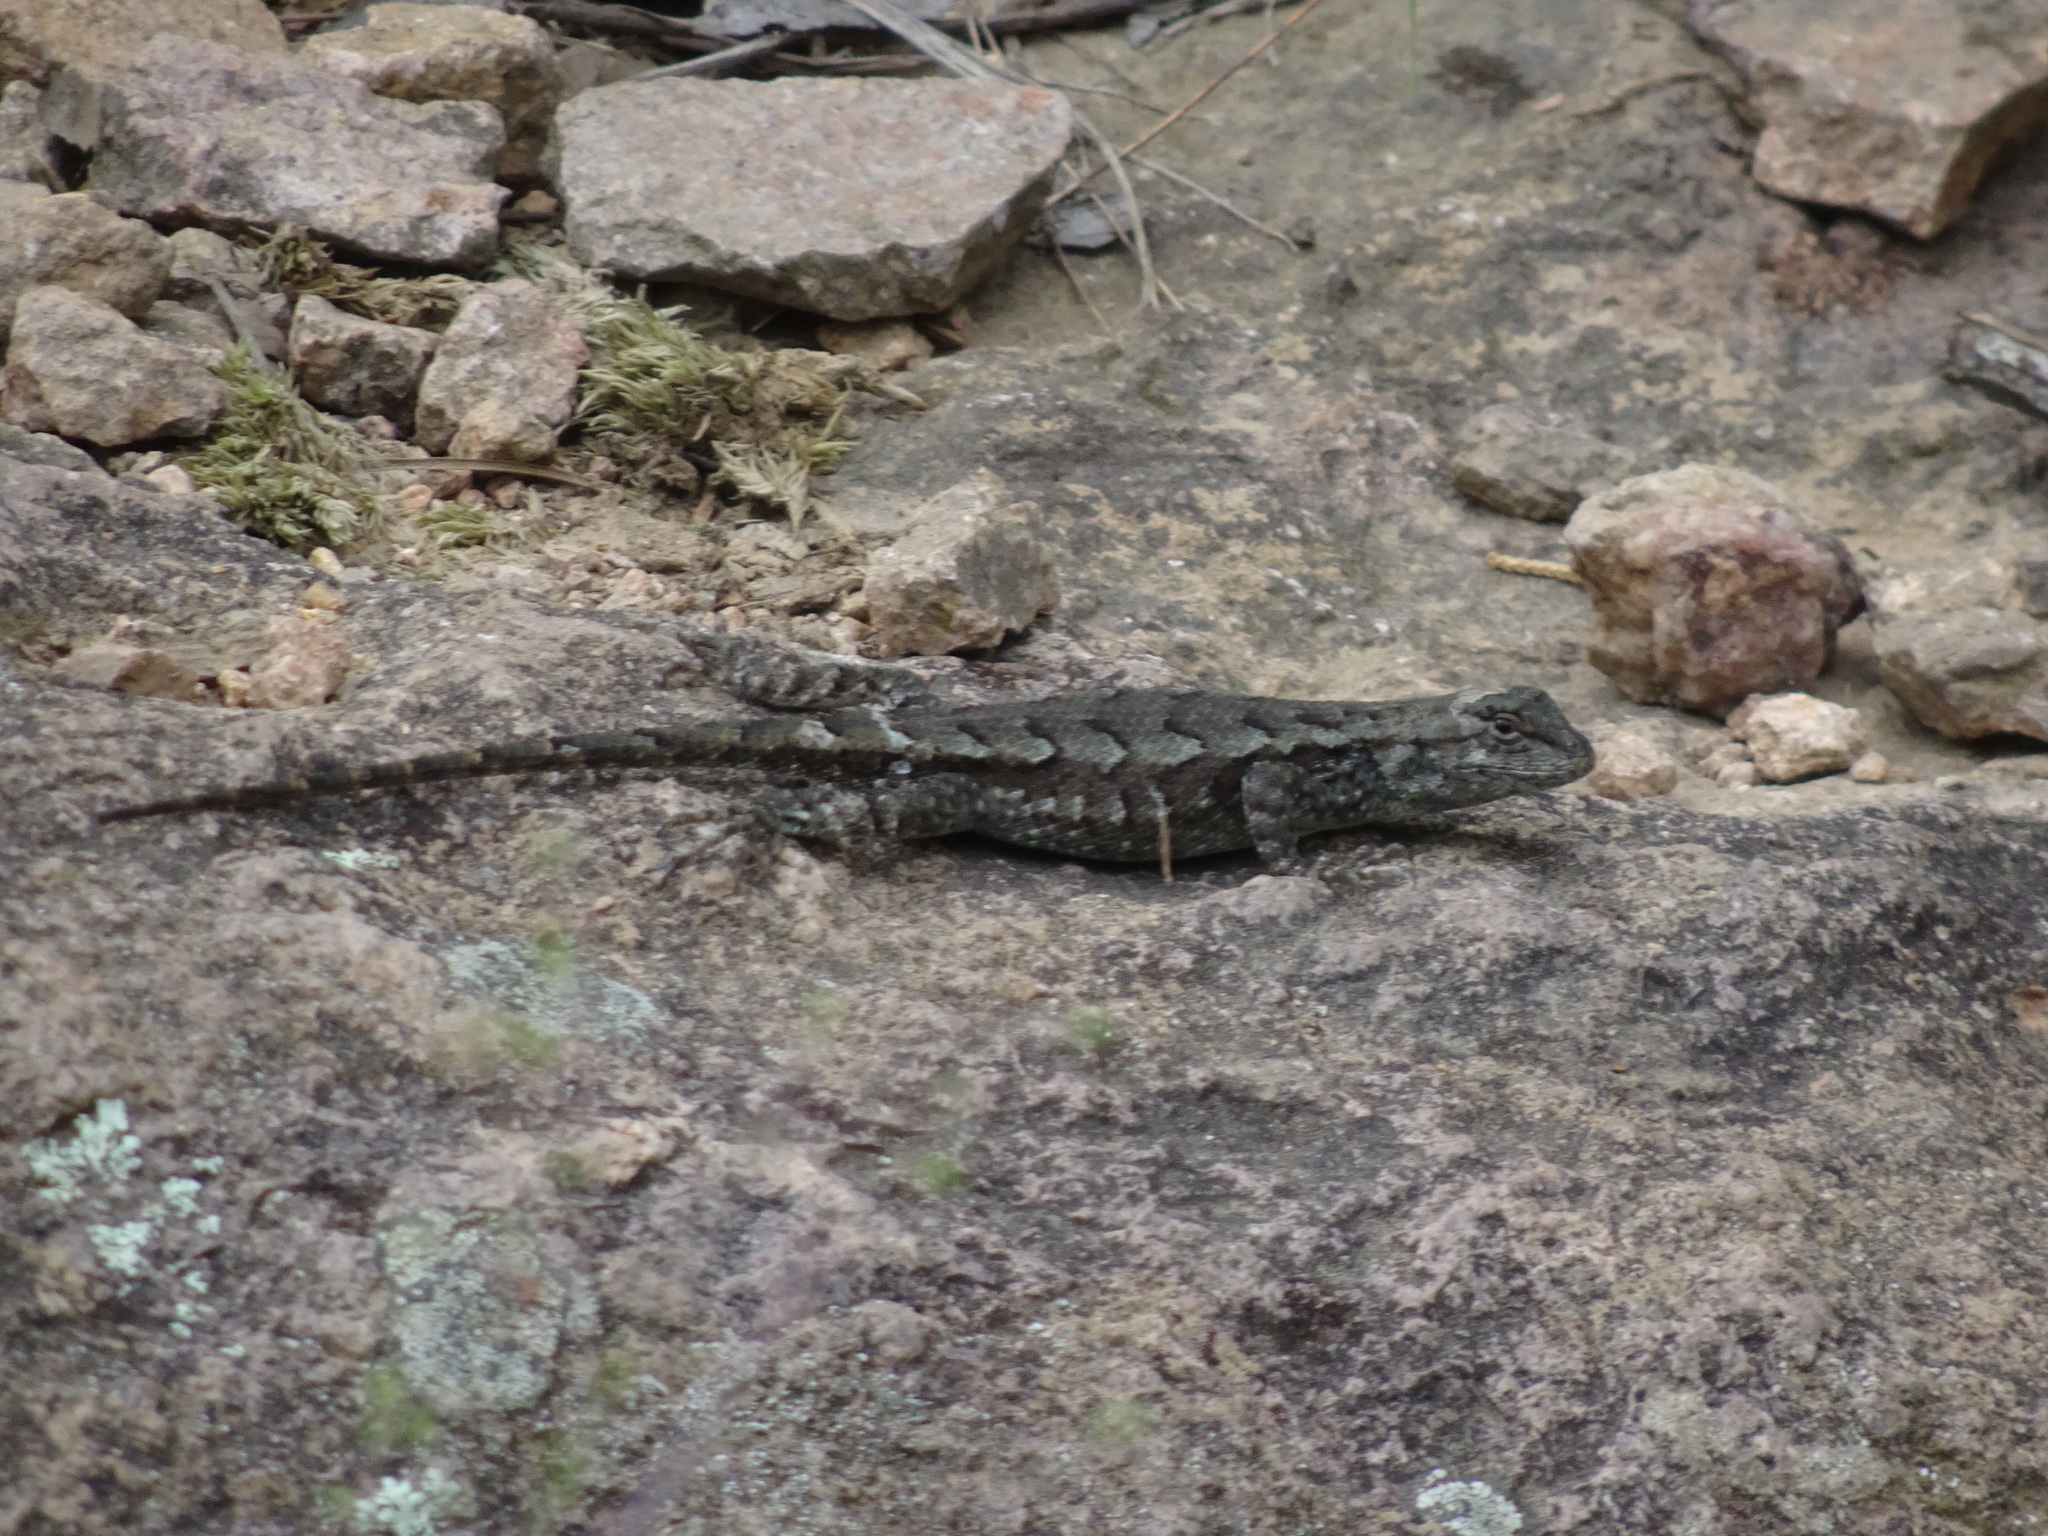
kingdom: Animalia
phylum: Chordata
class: Squamata
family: Phrynosomatidae
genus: Sceloporus
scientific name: Sceloporus consobrinus
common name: Southern prairie lizard
